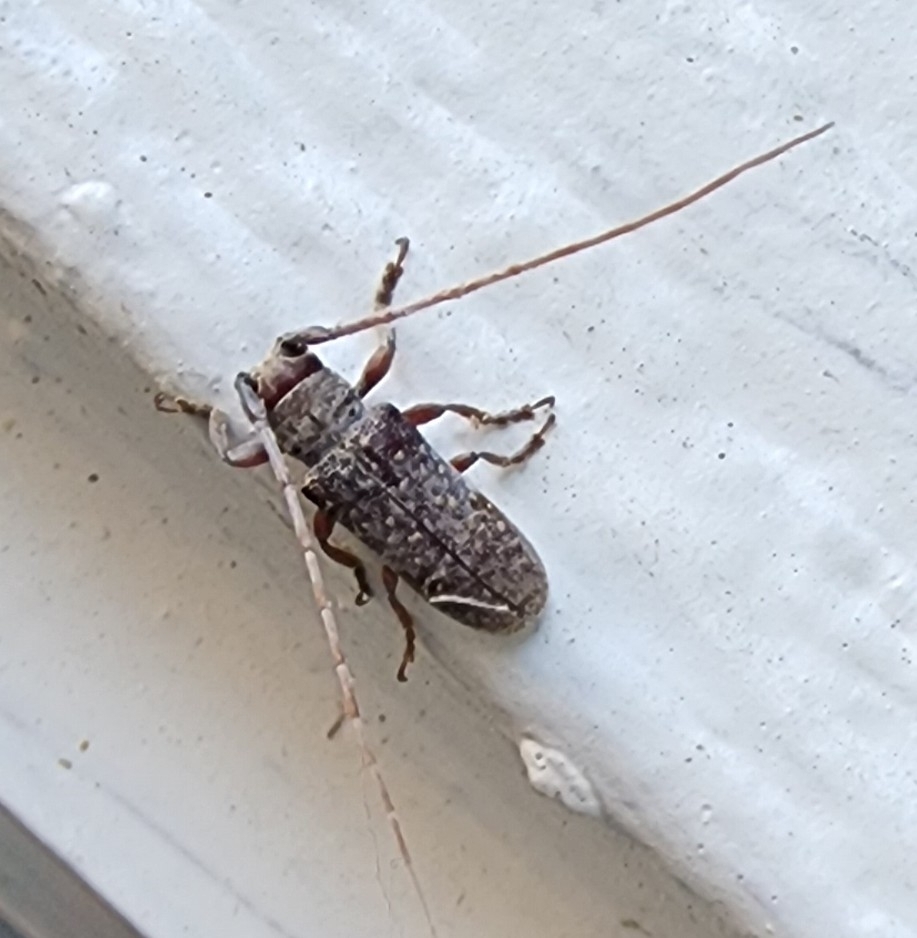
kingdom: Animalia
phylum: Arthropoda
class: Insecta
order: Coleoptera
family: Cerambycidae
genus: Oncideres
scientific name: Oncideres cingulata
